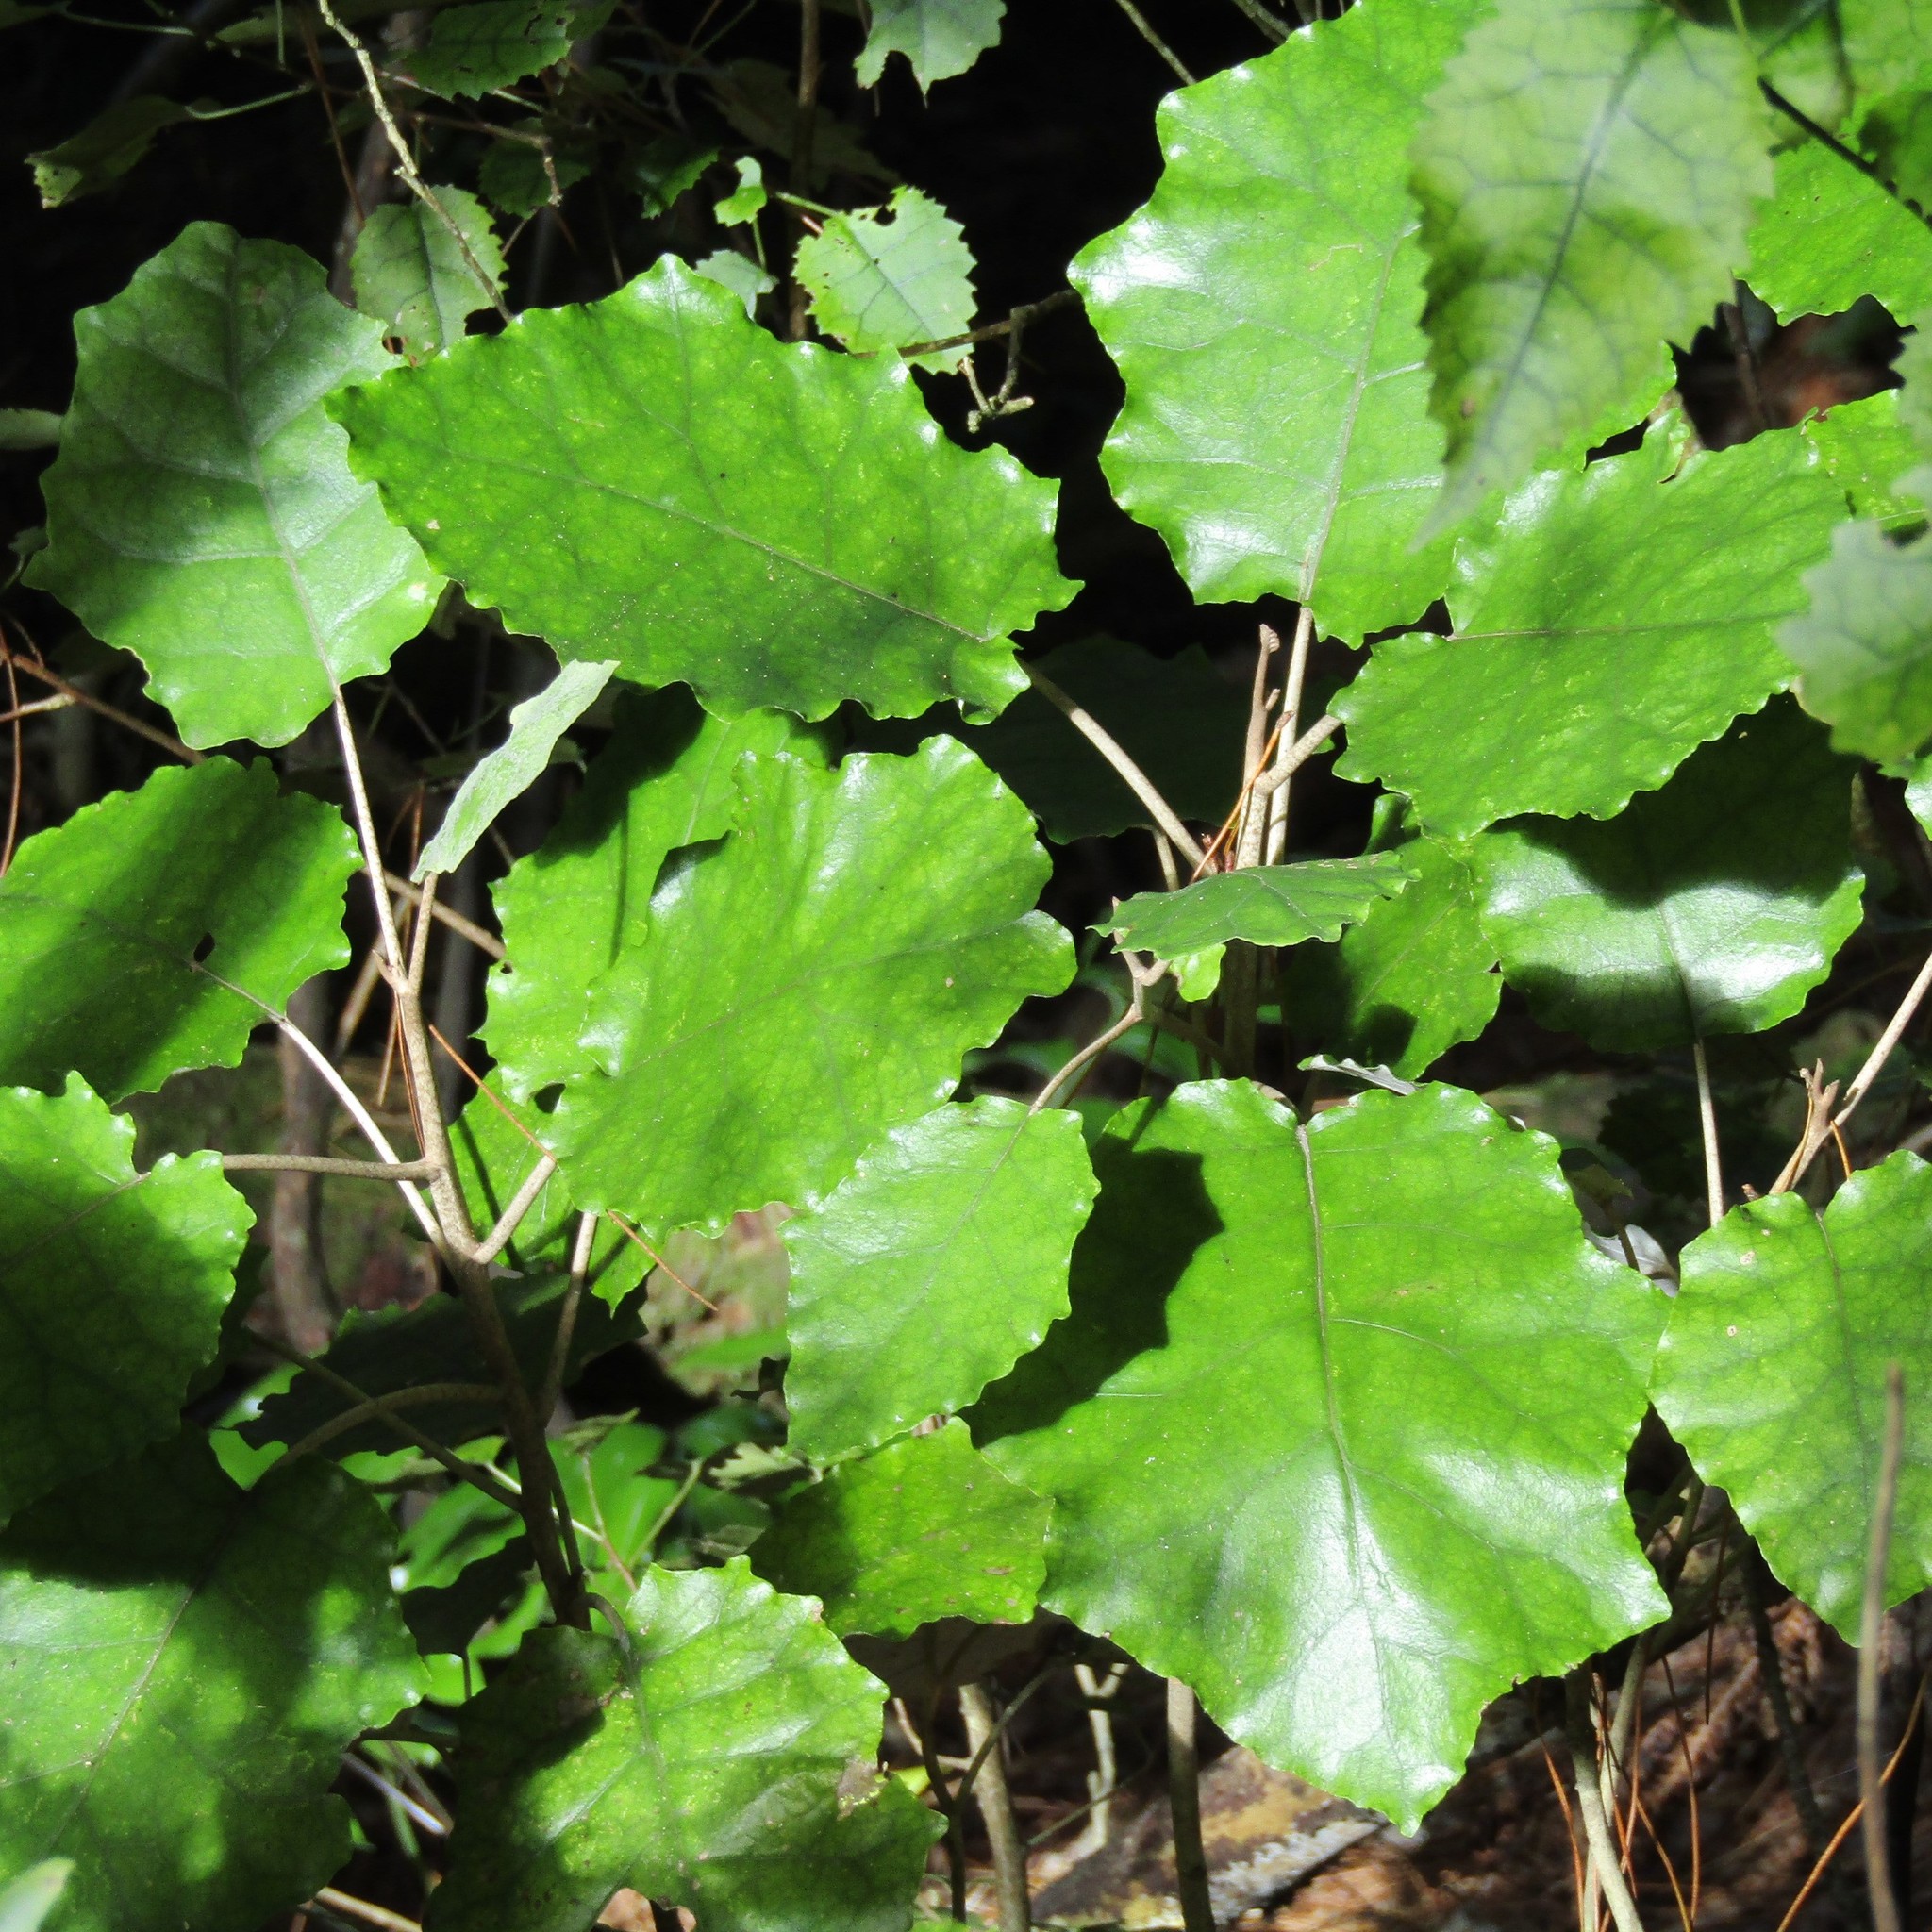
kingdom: Plantae
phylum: Tracheophyta
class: Magnoliopsida
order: Asterales
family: Asteraceae
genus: Brachyglottis
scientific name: Brachyglottis repanda
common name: Hedge ragwort
